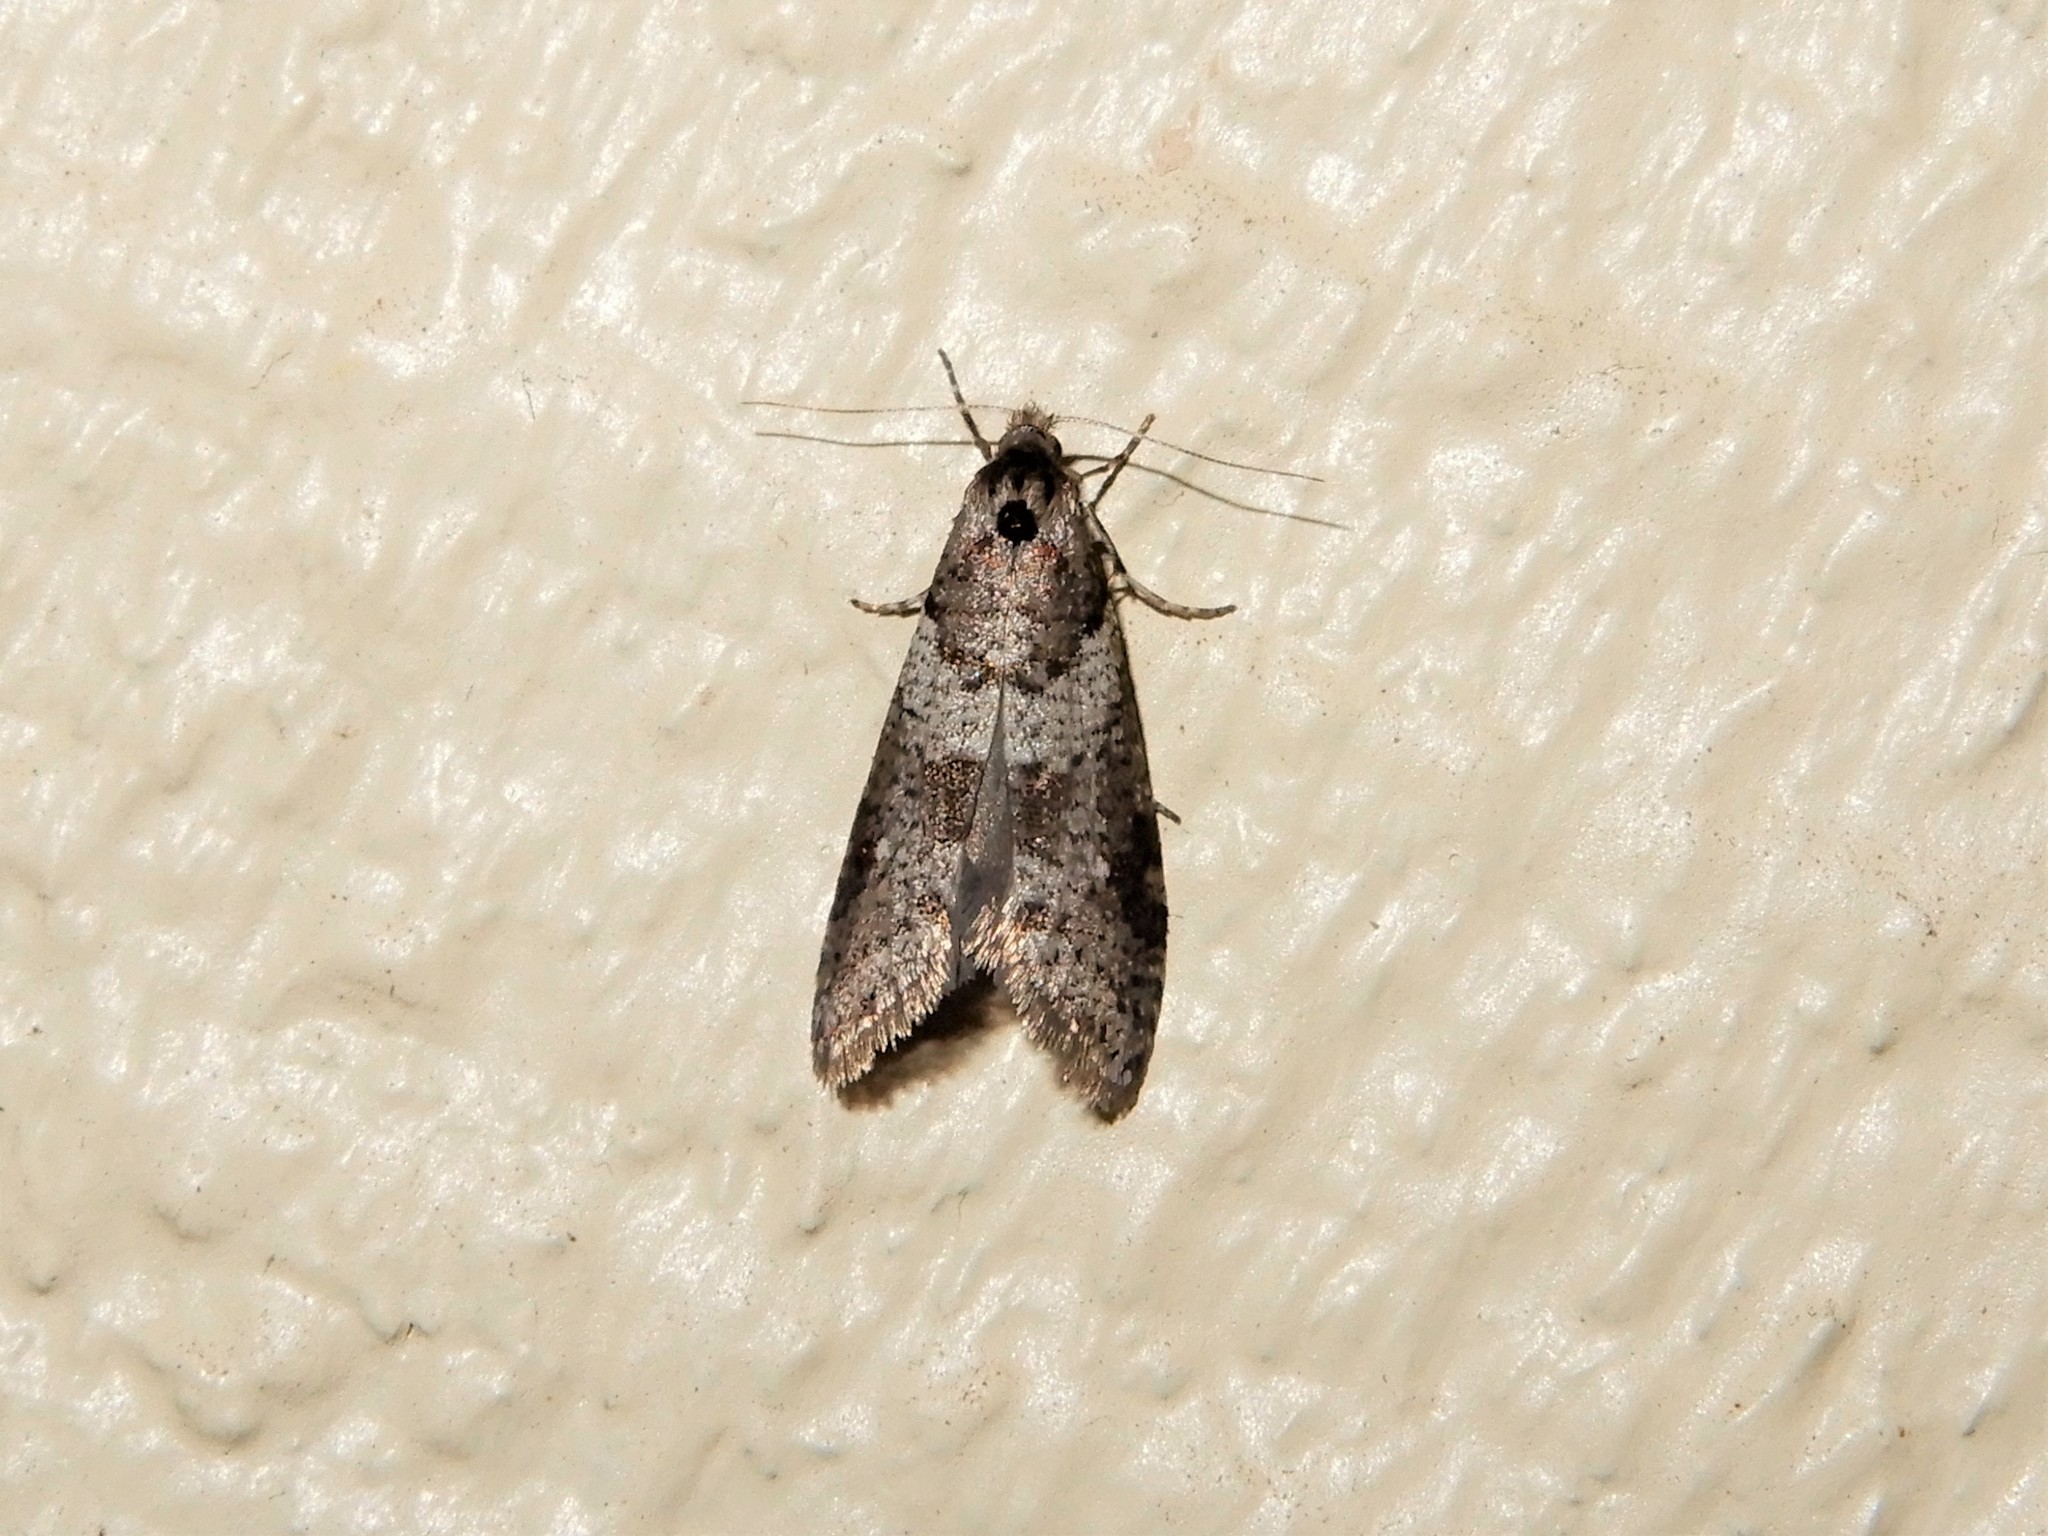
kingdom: Animalia
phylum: Arthropoda
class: Insecta
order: Lepidoptera
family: Psychidae
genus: Lepidoscia
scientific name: Lepidoscia heliochares
